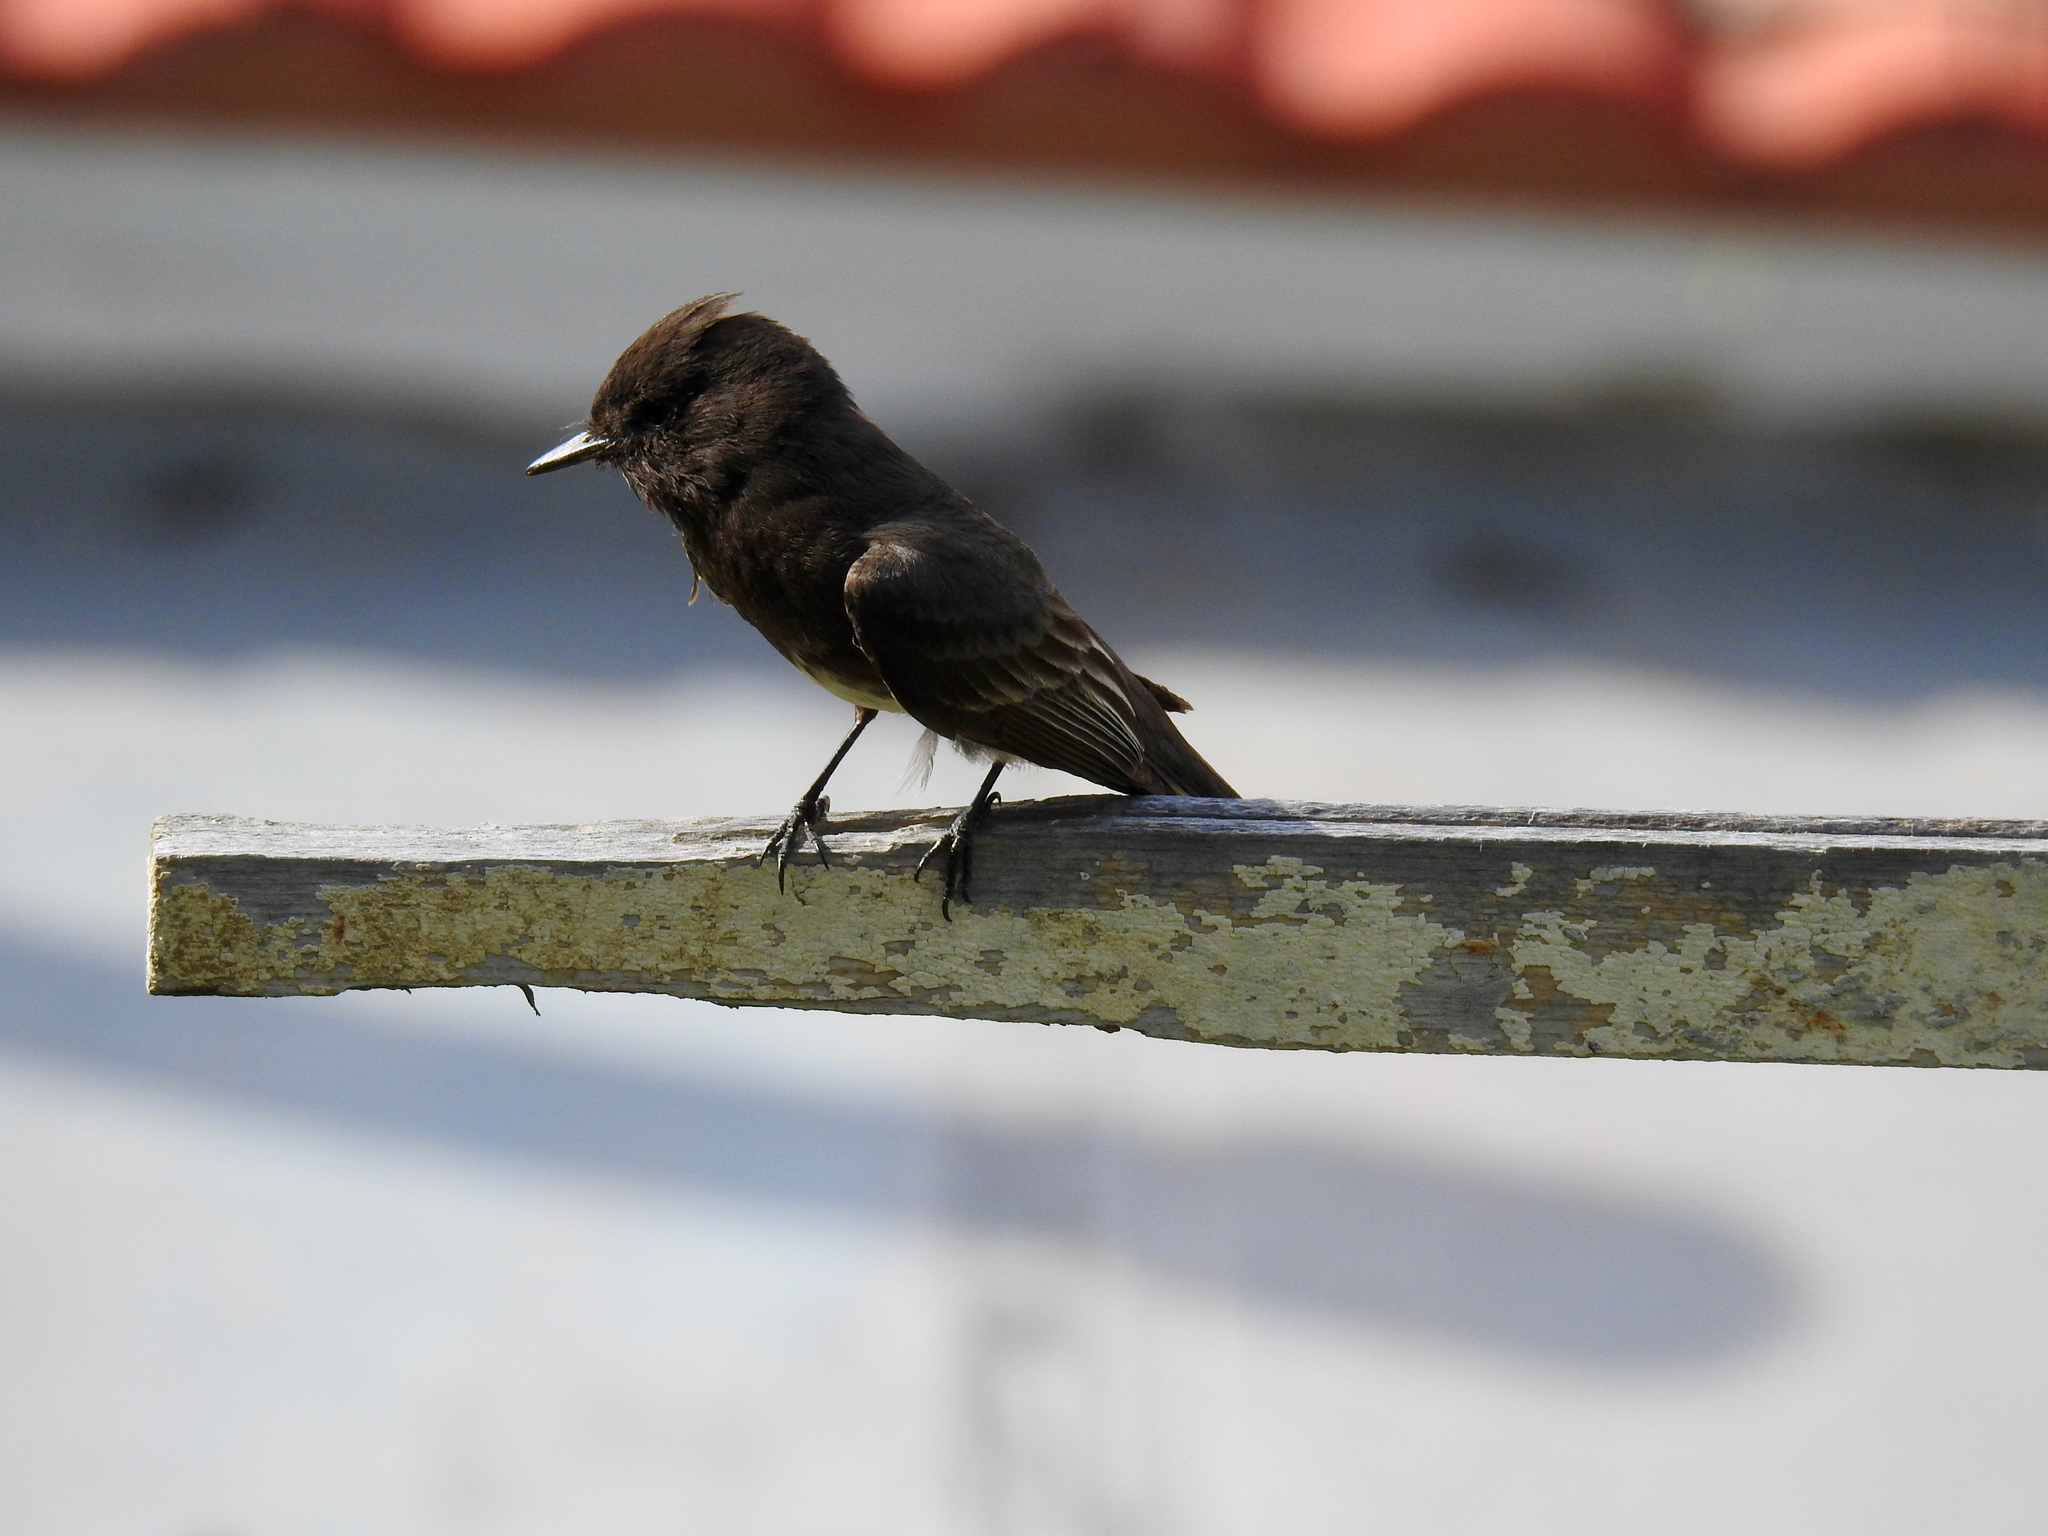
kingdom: Animalia
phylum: Chordata
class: Aves
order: Passeriformes
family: Tyrannidae
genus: Sayornis
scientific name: Sayornis nigricans
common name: Black phoebe
